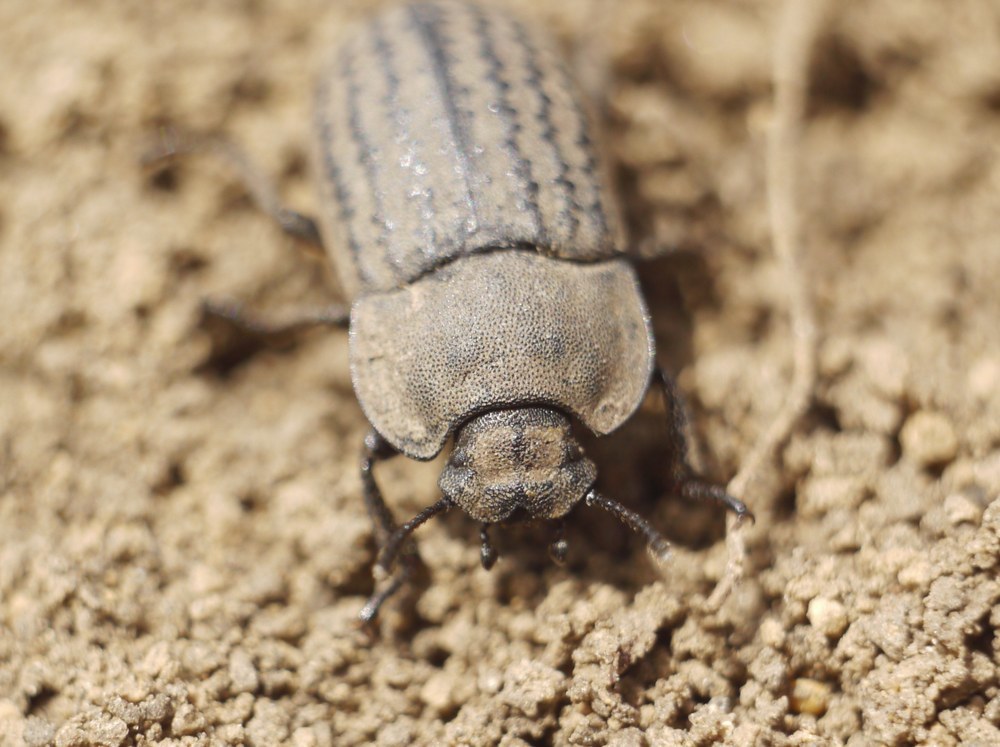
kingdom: Animalia
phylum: Arthropoda
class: Insecta
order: Coleoptera
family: Tenebrionidae
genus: Opatrum
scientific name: Opatrum sabulosum
